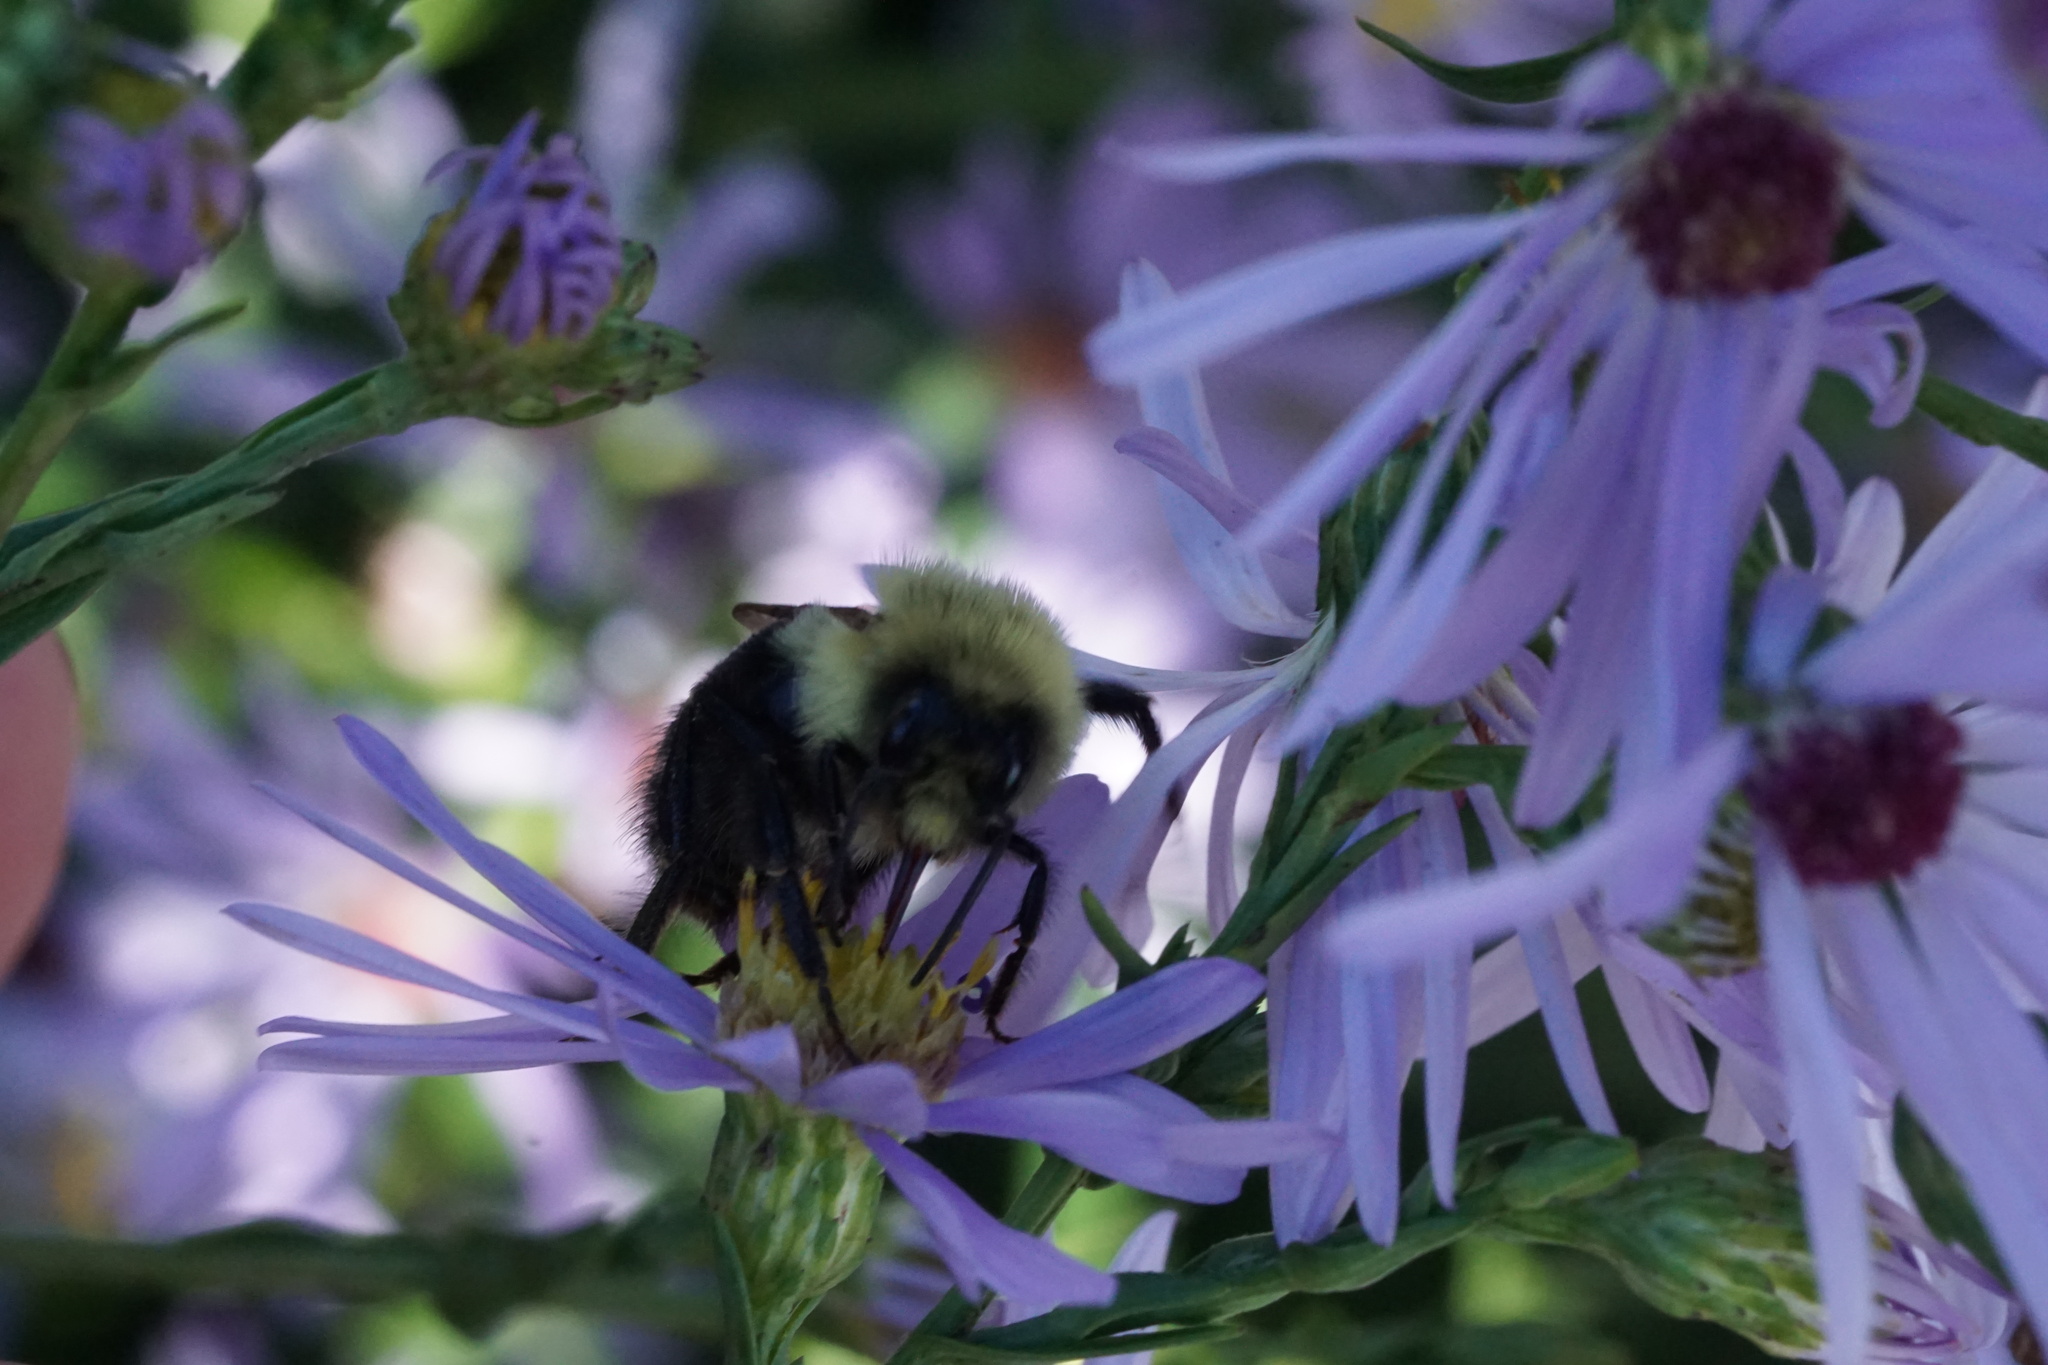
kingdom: Animalia
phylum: Arthropoda
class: Insecta
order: Hymenoptera
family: Apidae
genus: Bombus
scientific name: Bombus impatiens
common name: Common eastern bumble bee
